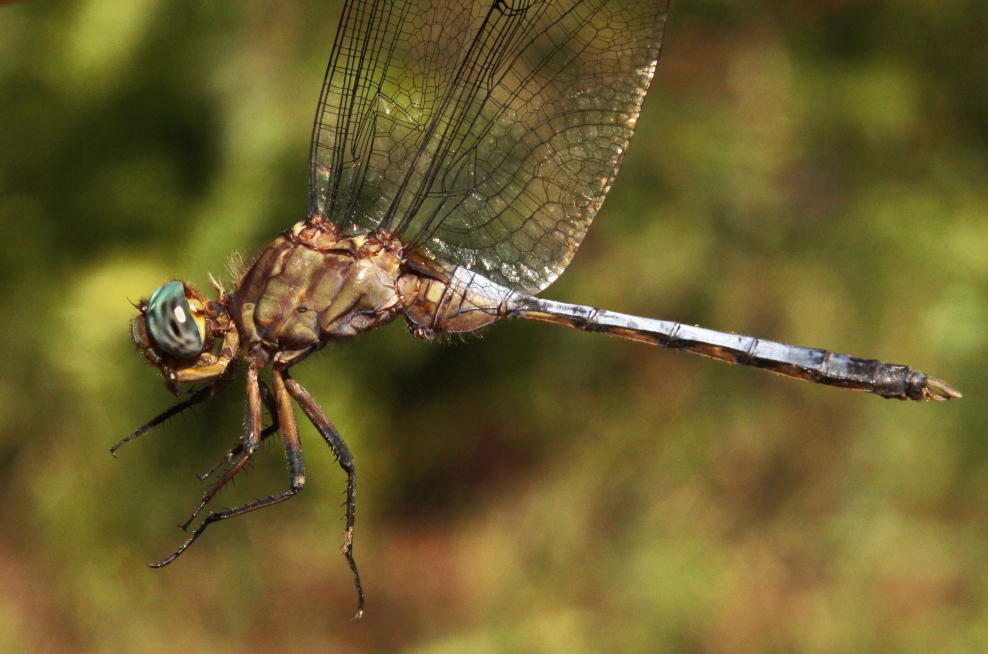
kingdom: Animalia
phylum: Arthropoda
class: Insecta
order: Odonata
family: Libellulidae
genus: Orthetrum
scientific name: Orthetrum julia
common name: Julia skimmer
